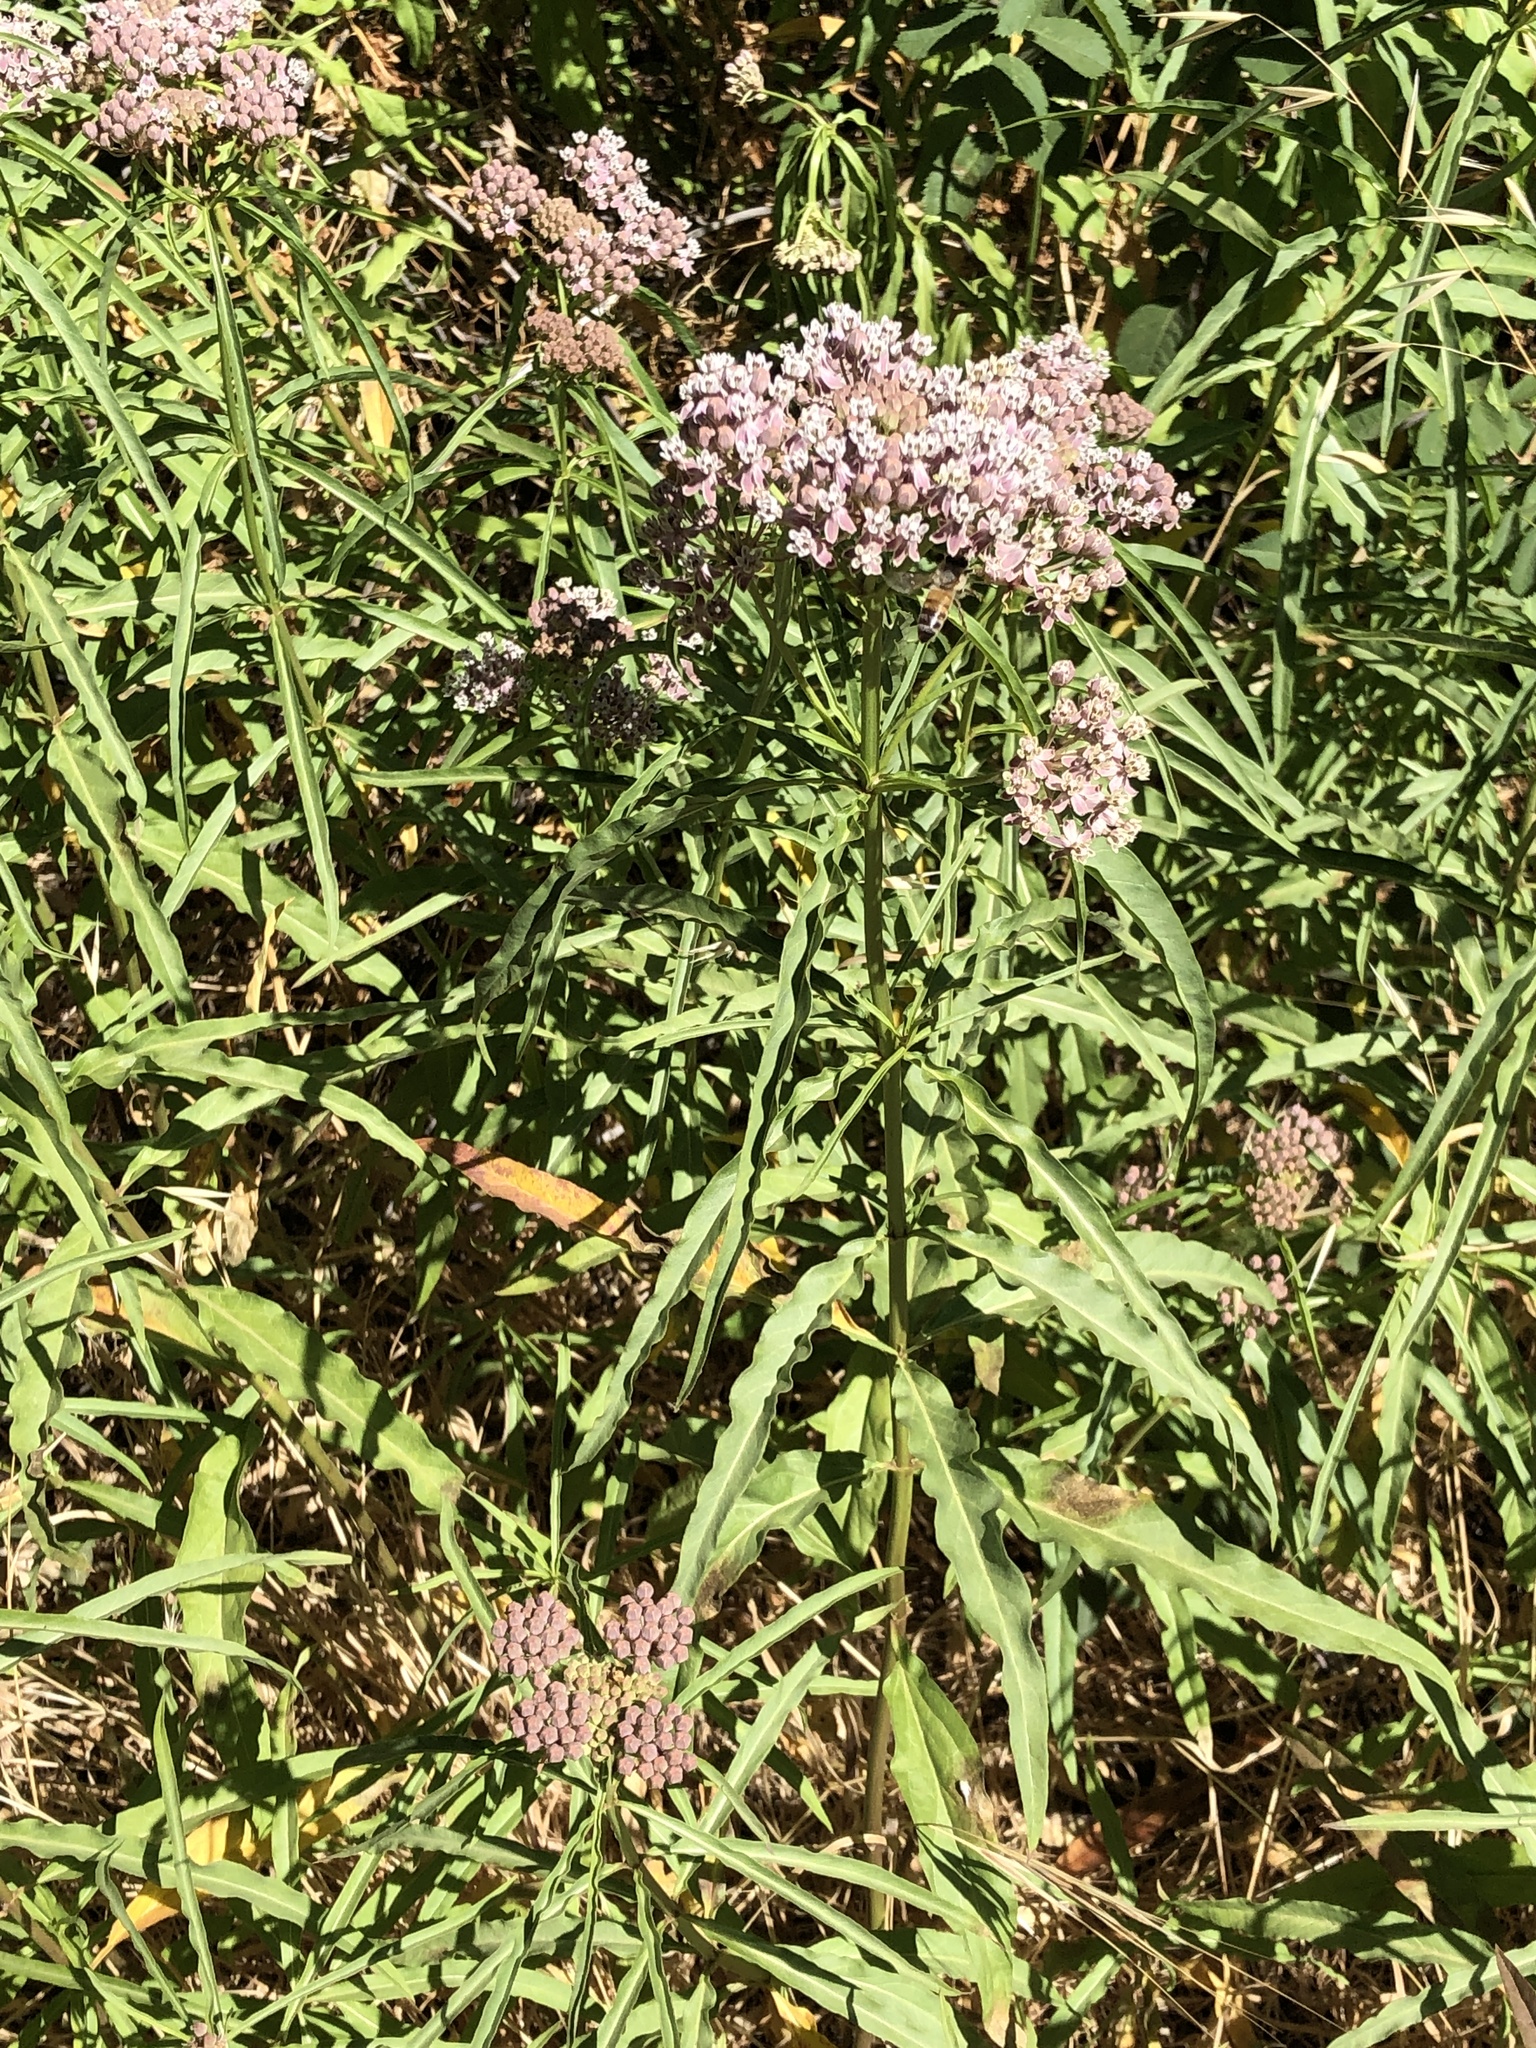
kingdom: Plantae
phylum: Tracheophyta
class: Magnoliopsida
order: Gentianales
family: Apocynaceae
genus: Asclepias
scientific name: Asclepias fascicularis
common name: Mexican milkweed
